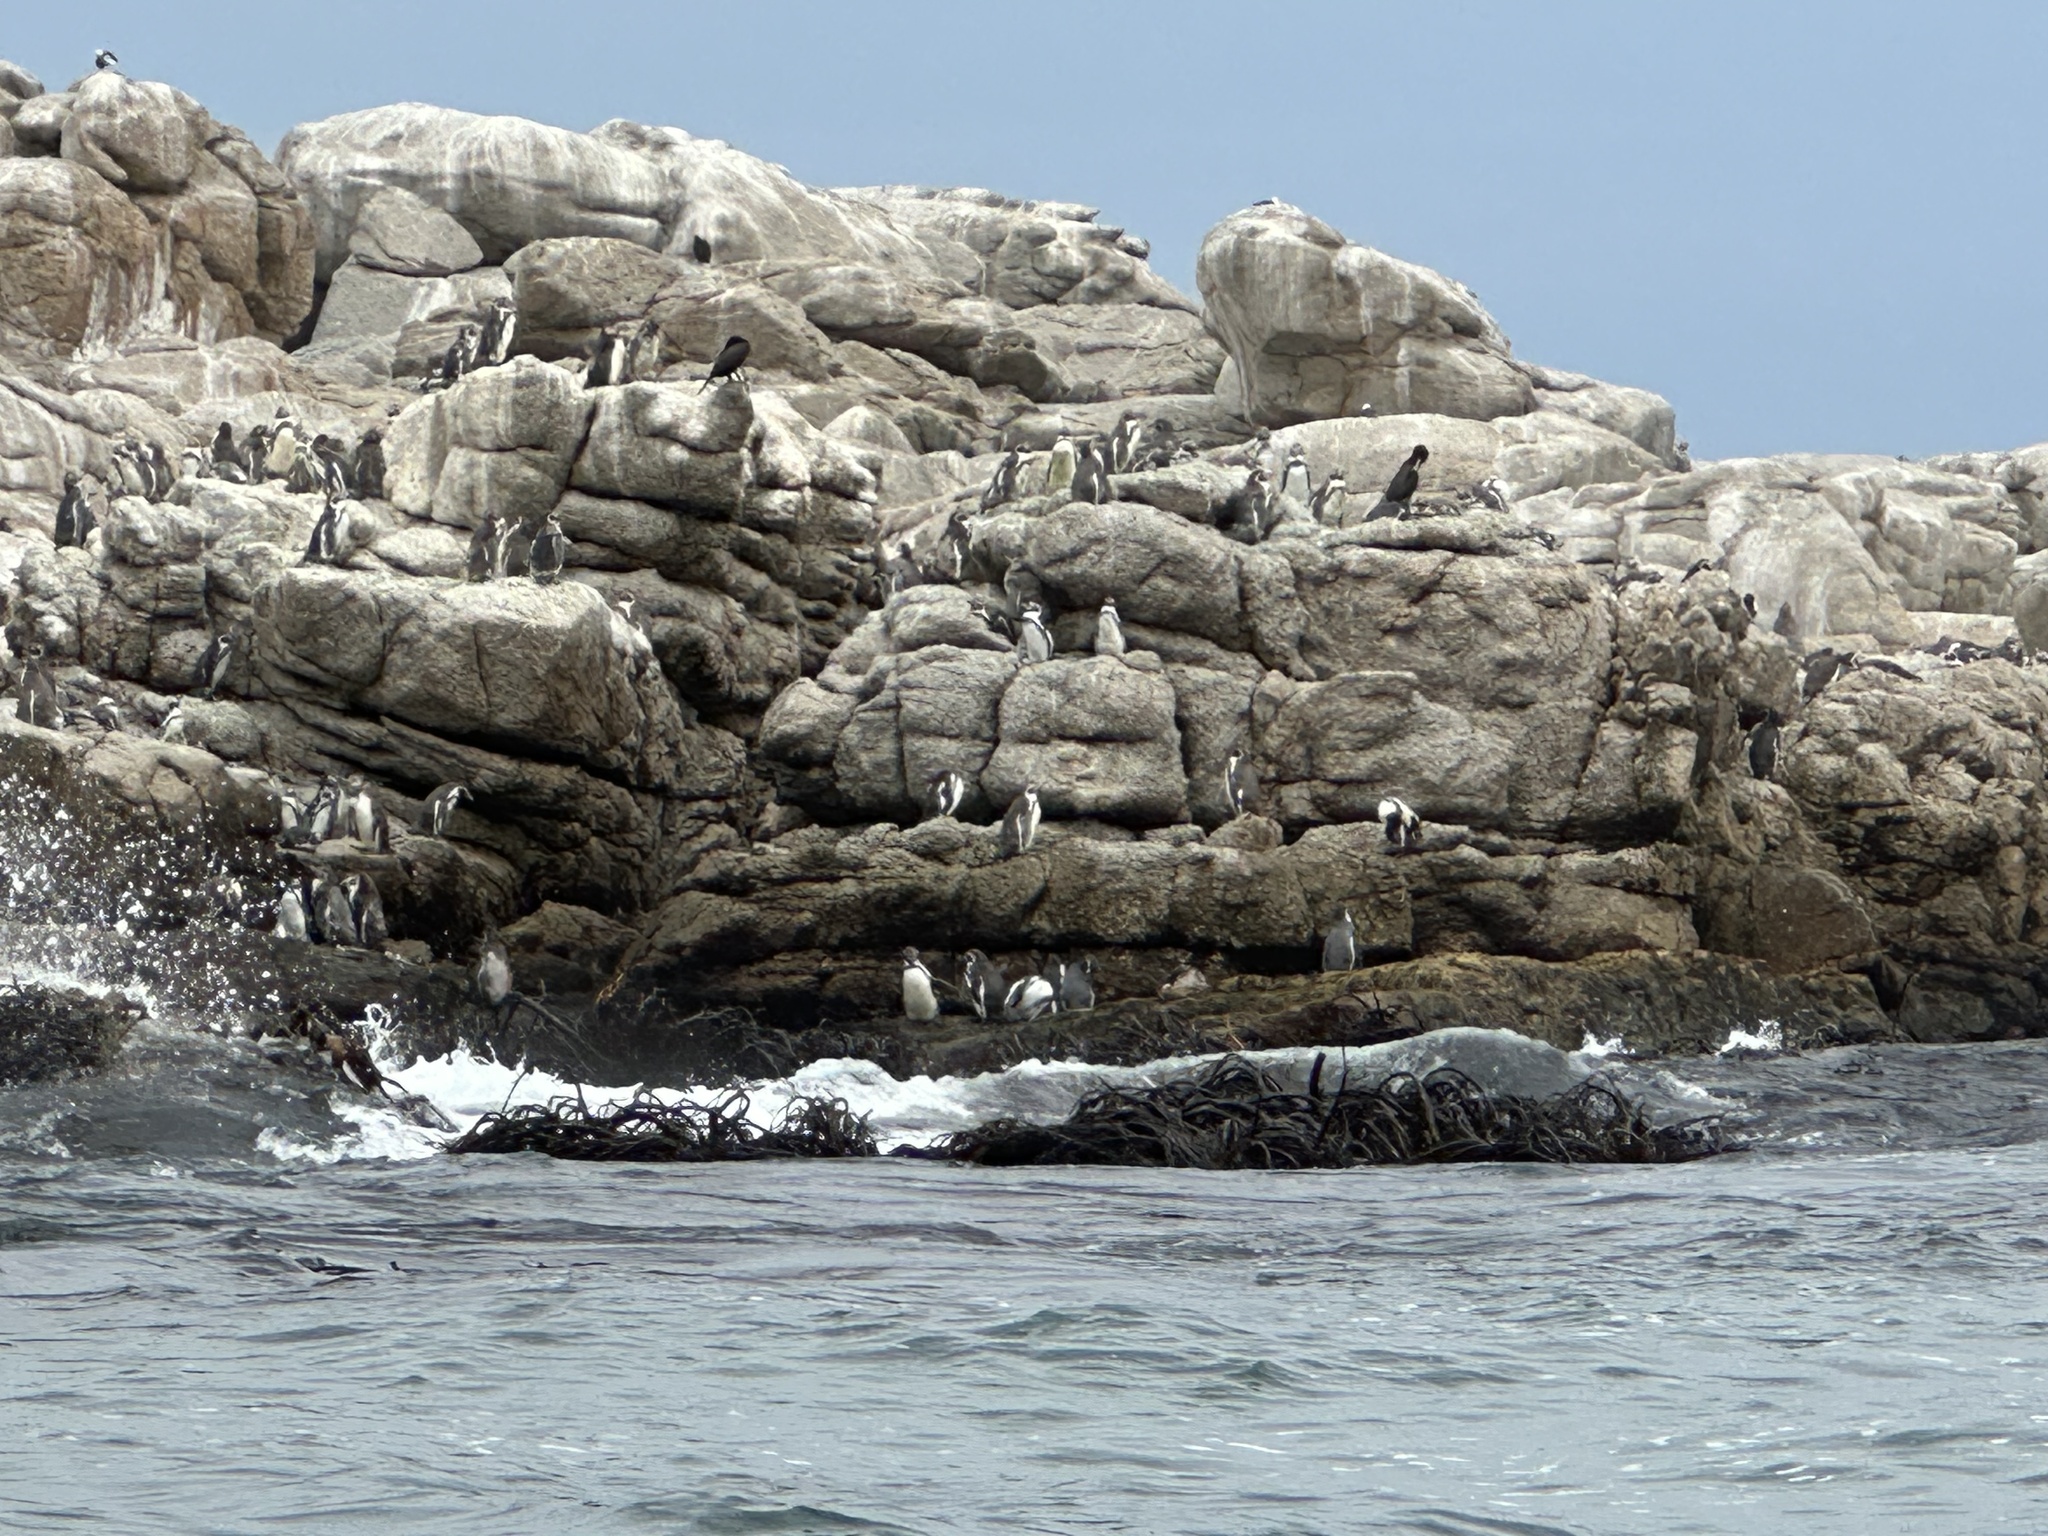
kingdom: Animalia
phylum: Chordata
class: Aves
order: Sphenisciformes
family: Spheniscidae
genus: Spheniscus
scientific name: Spheniscus humboldti
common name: Humboldt penguin
